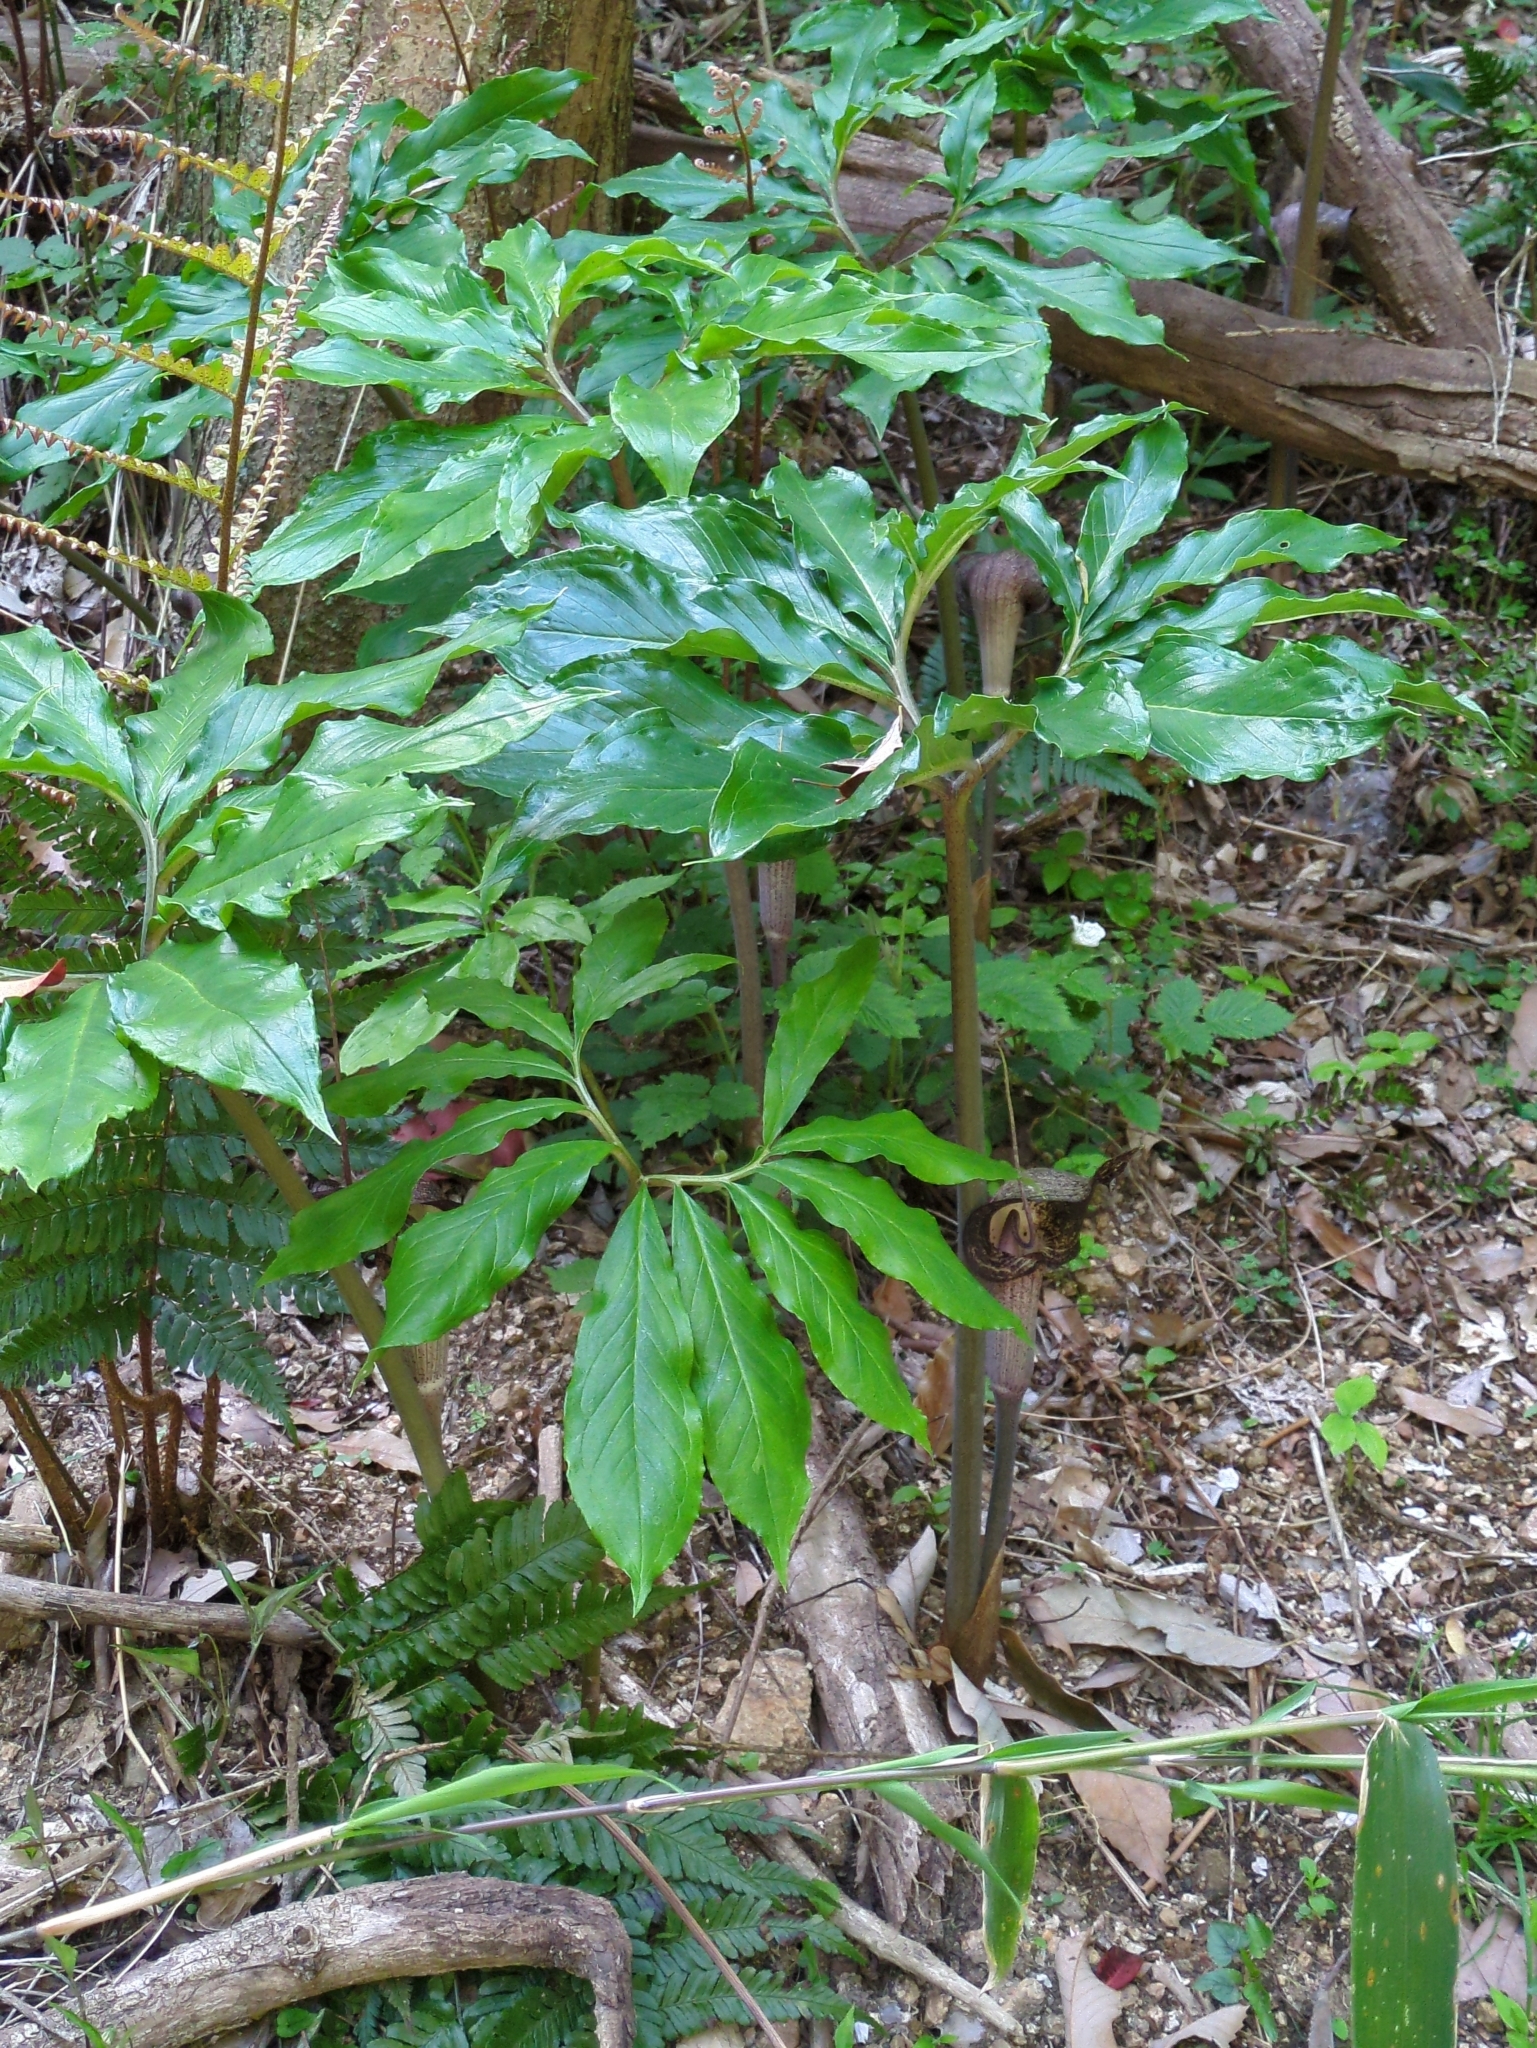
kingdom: Plantae
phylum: Tracheophyta
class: Liliopsida
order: Alismatales
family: Araceae
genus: Arisaema
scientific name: Arisaema thunbergii
